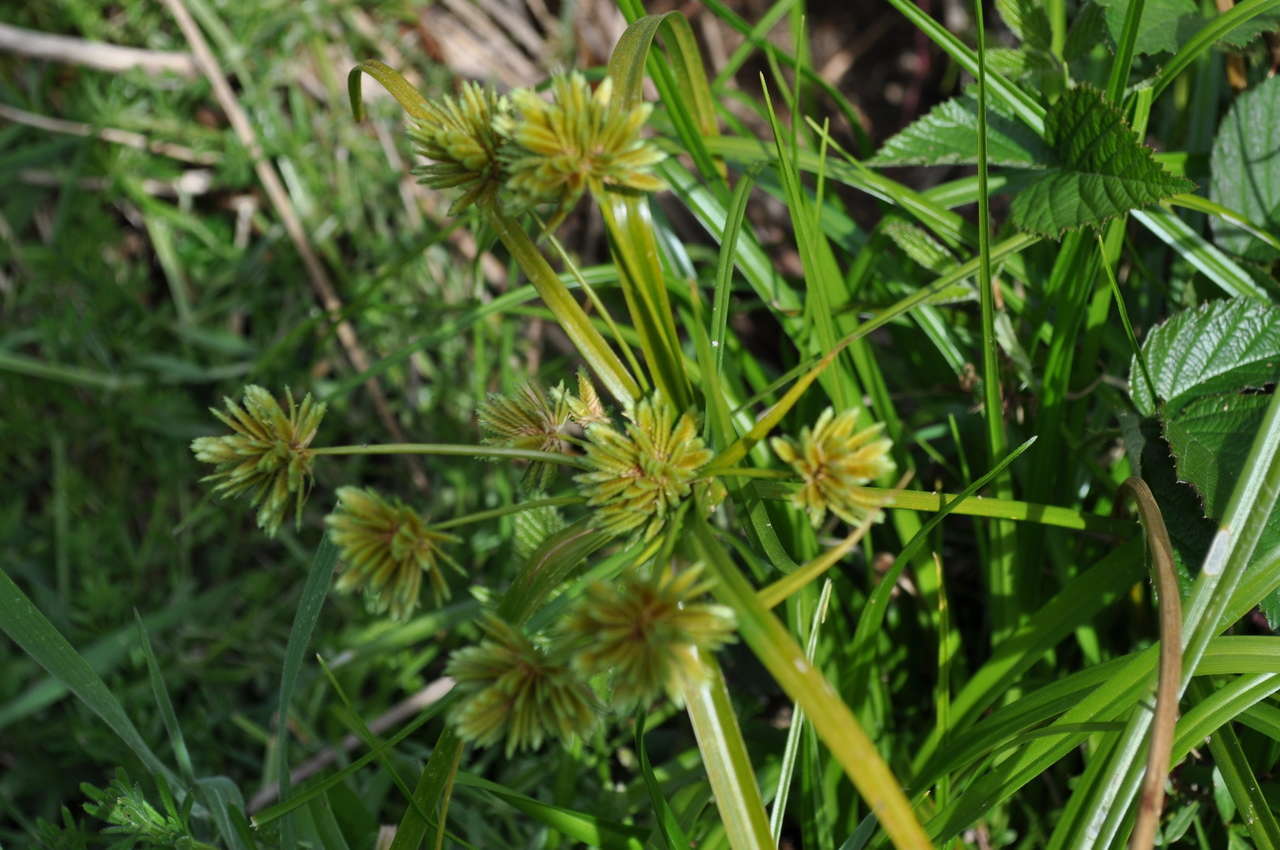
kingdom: Plantae
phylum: Tracheophyta
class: Liliopsida
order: Poales
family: Cyperaceae
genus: Cyperus
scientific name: Cyperus eragrostis
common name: Tall flatsedge
